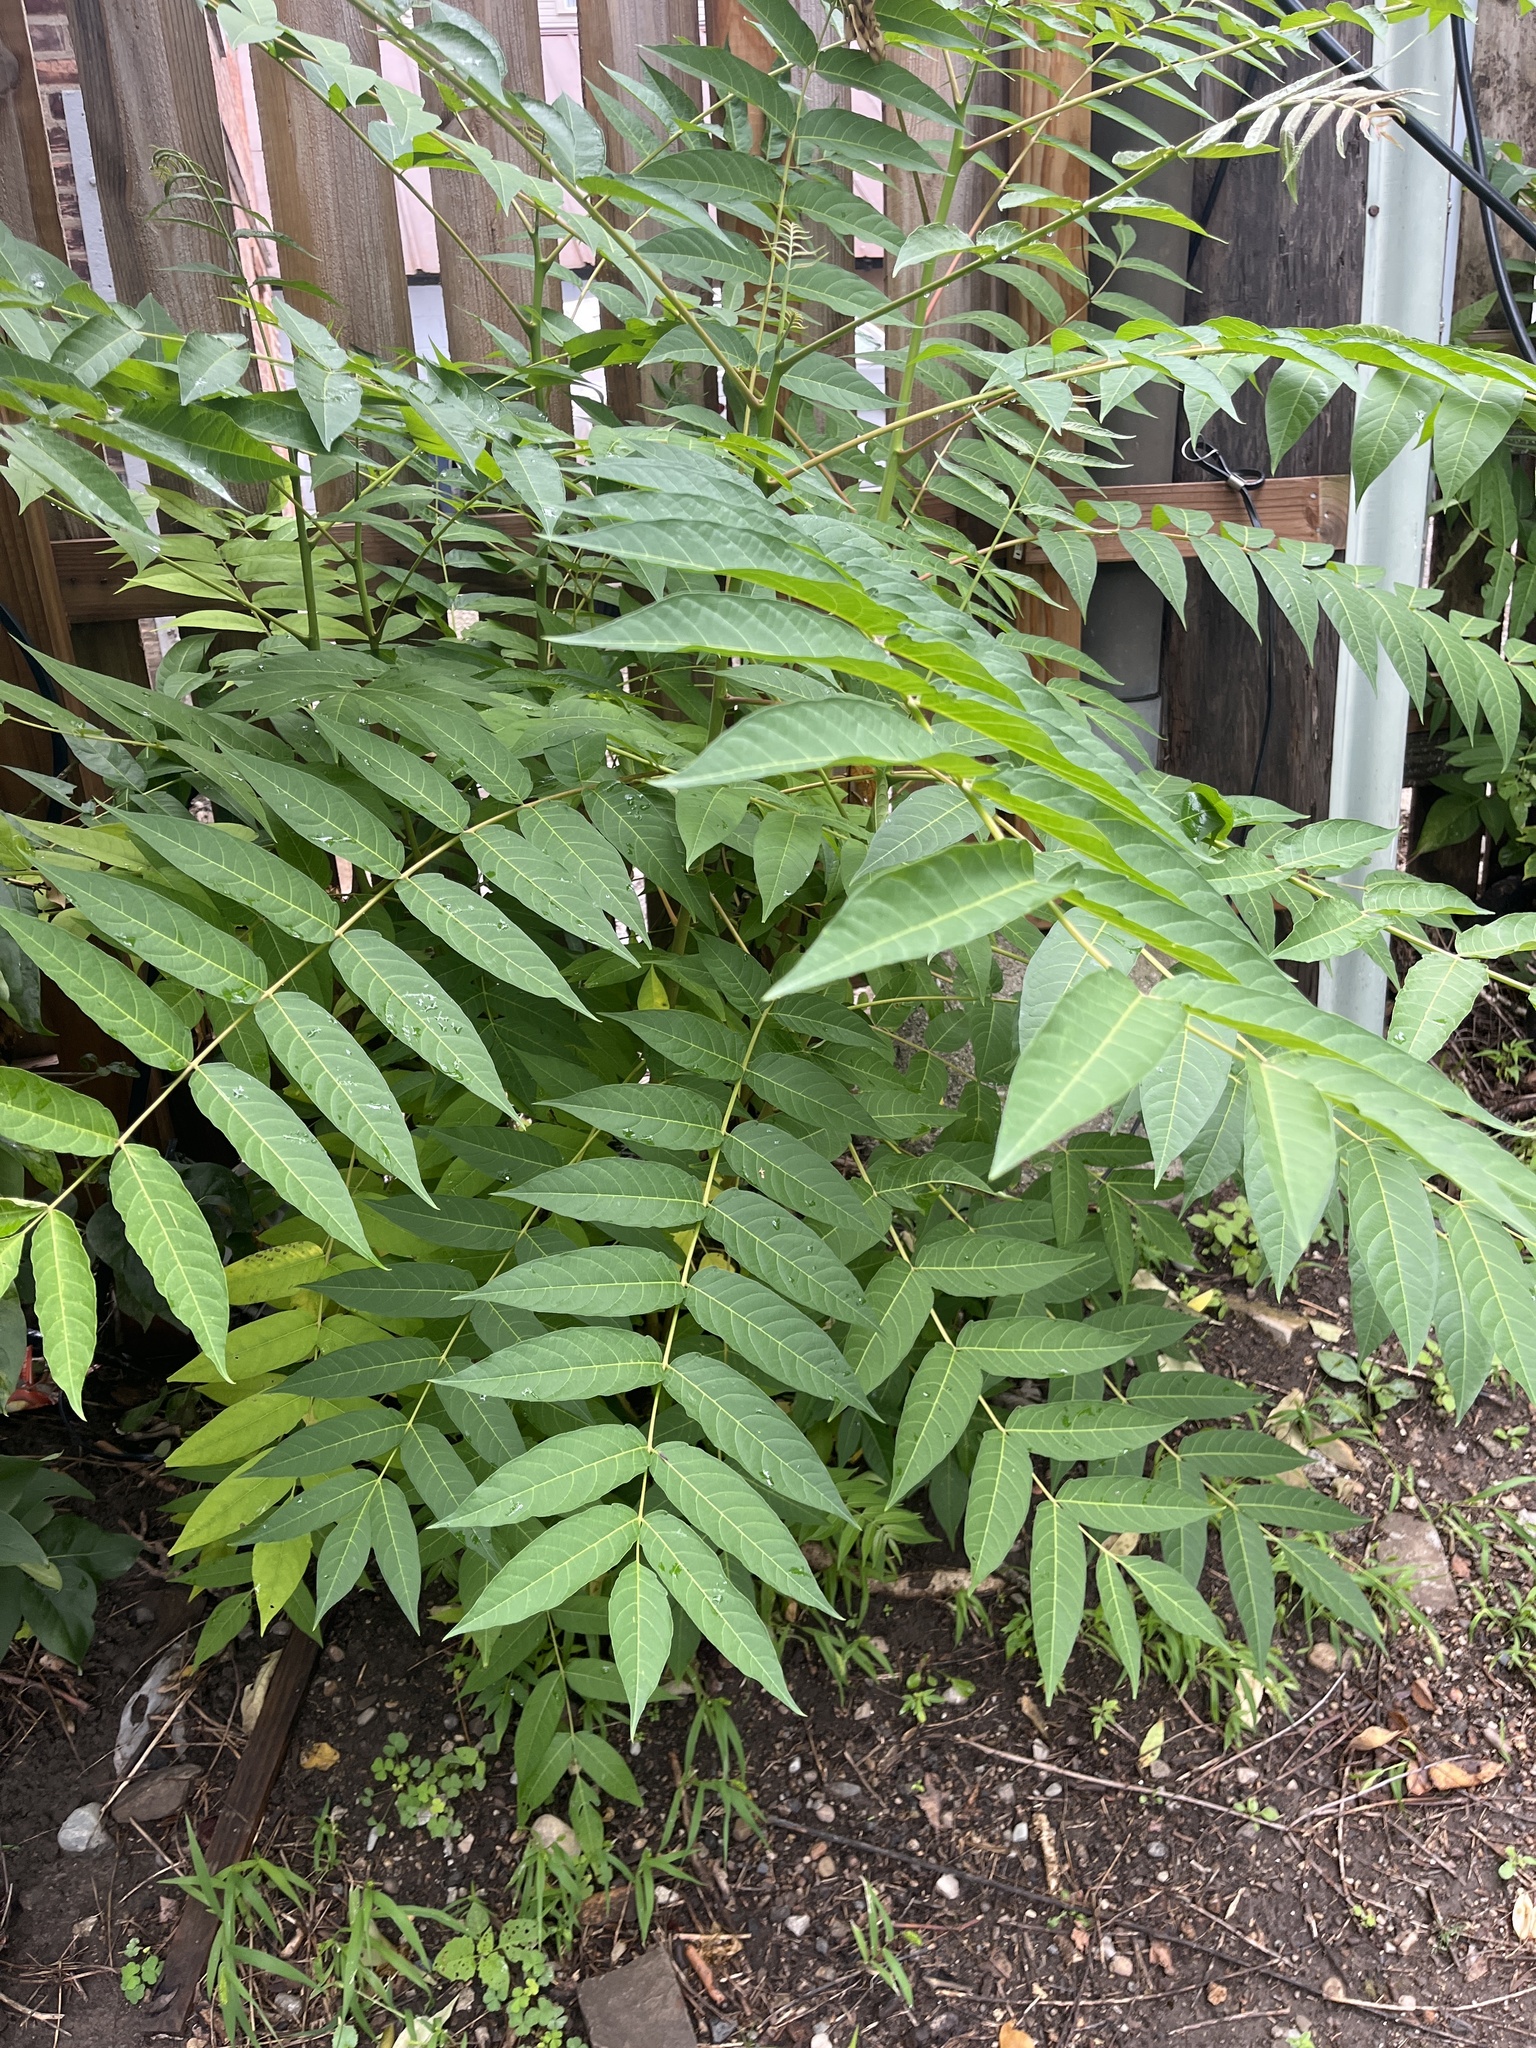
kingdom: Plantae
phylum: Tracheophyta
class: Magnoliopsida
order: Sapindales
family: Simaroubaceae
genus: Ailanthus
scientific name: Ailanthus altissima
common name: Tree-of-heaven
